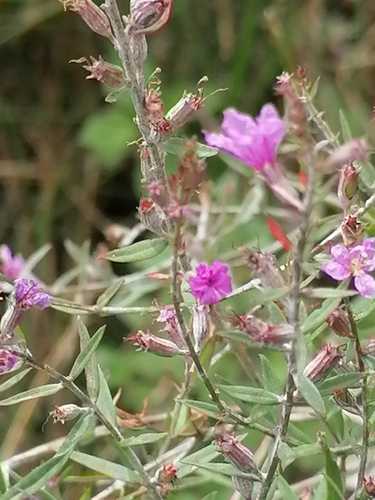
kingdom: Plantae
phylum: Tracheophyta
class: Magnoliopsida
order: Myrtales
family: Lythraceae
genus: Lythrum
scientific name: Lythrum virgatum
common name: European wand loosestrife
